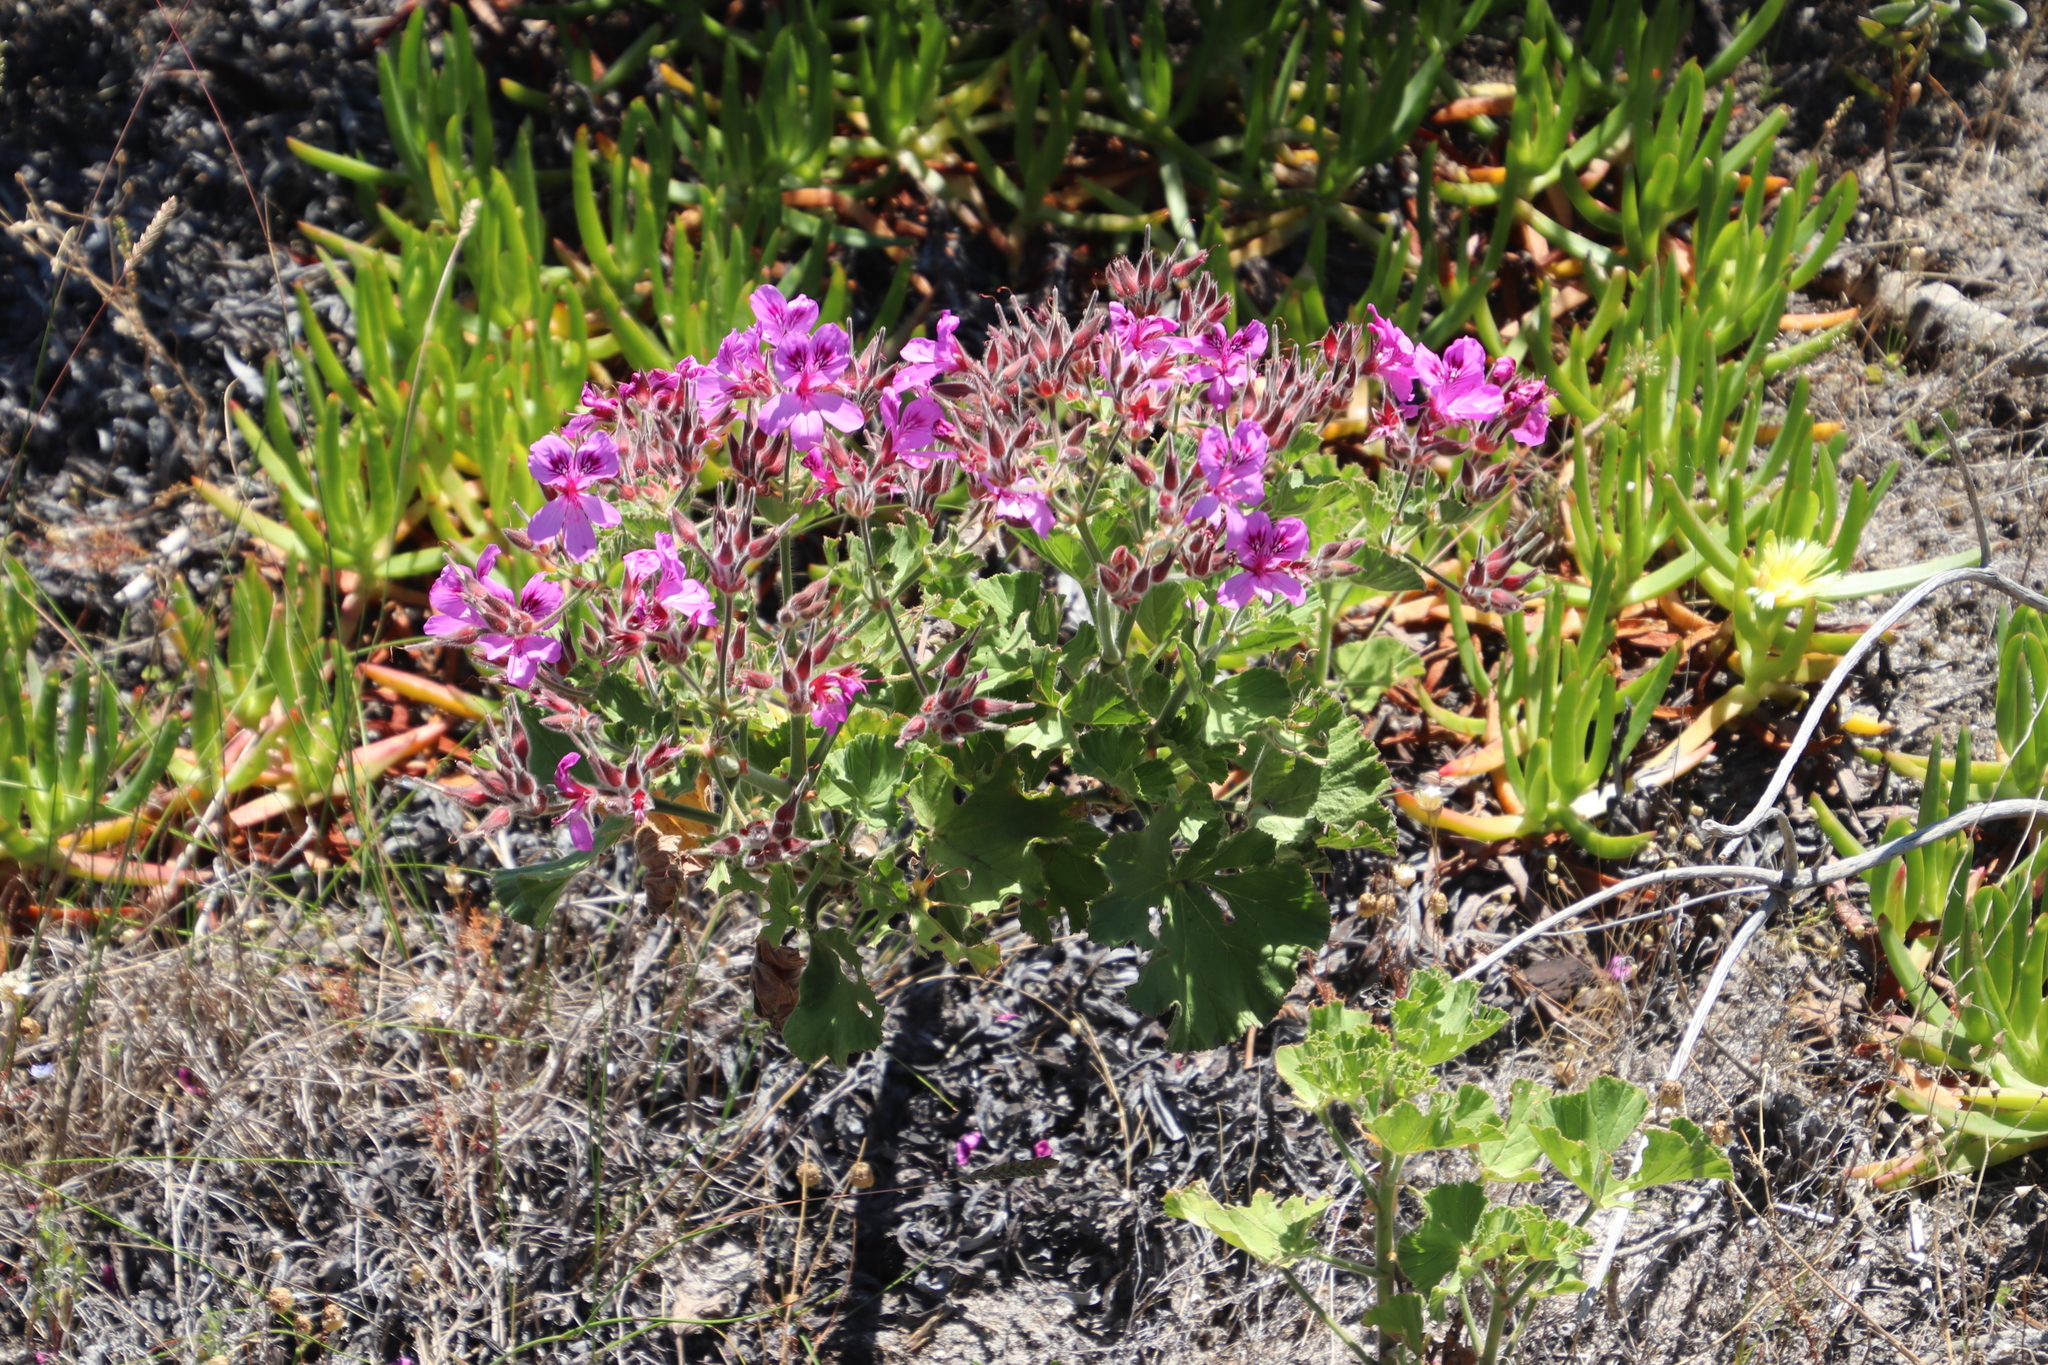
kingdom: Plantae
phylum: Tracheophyta
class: Magnoliopsida
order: Geraniales
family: Geraniaceae
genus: Pelargonium
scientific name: Pelargonium cucullatum
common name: Tree pelargonium
